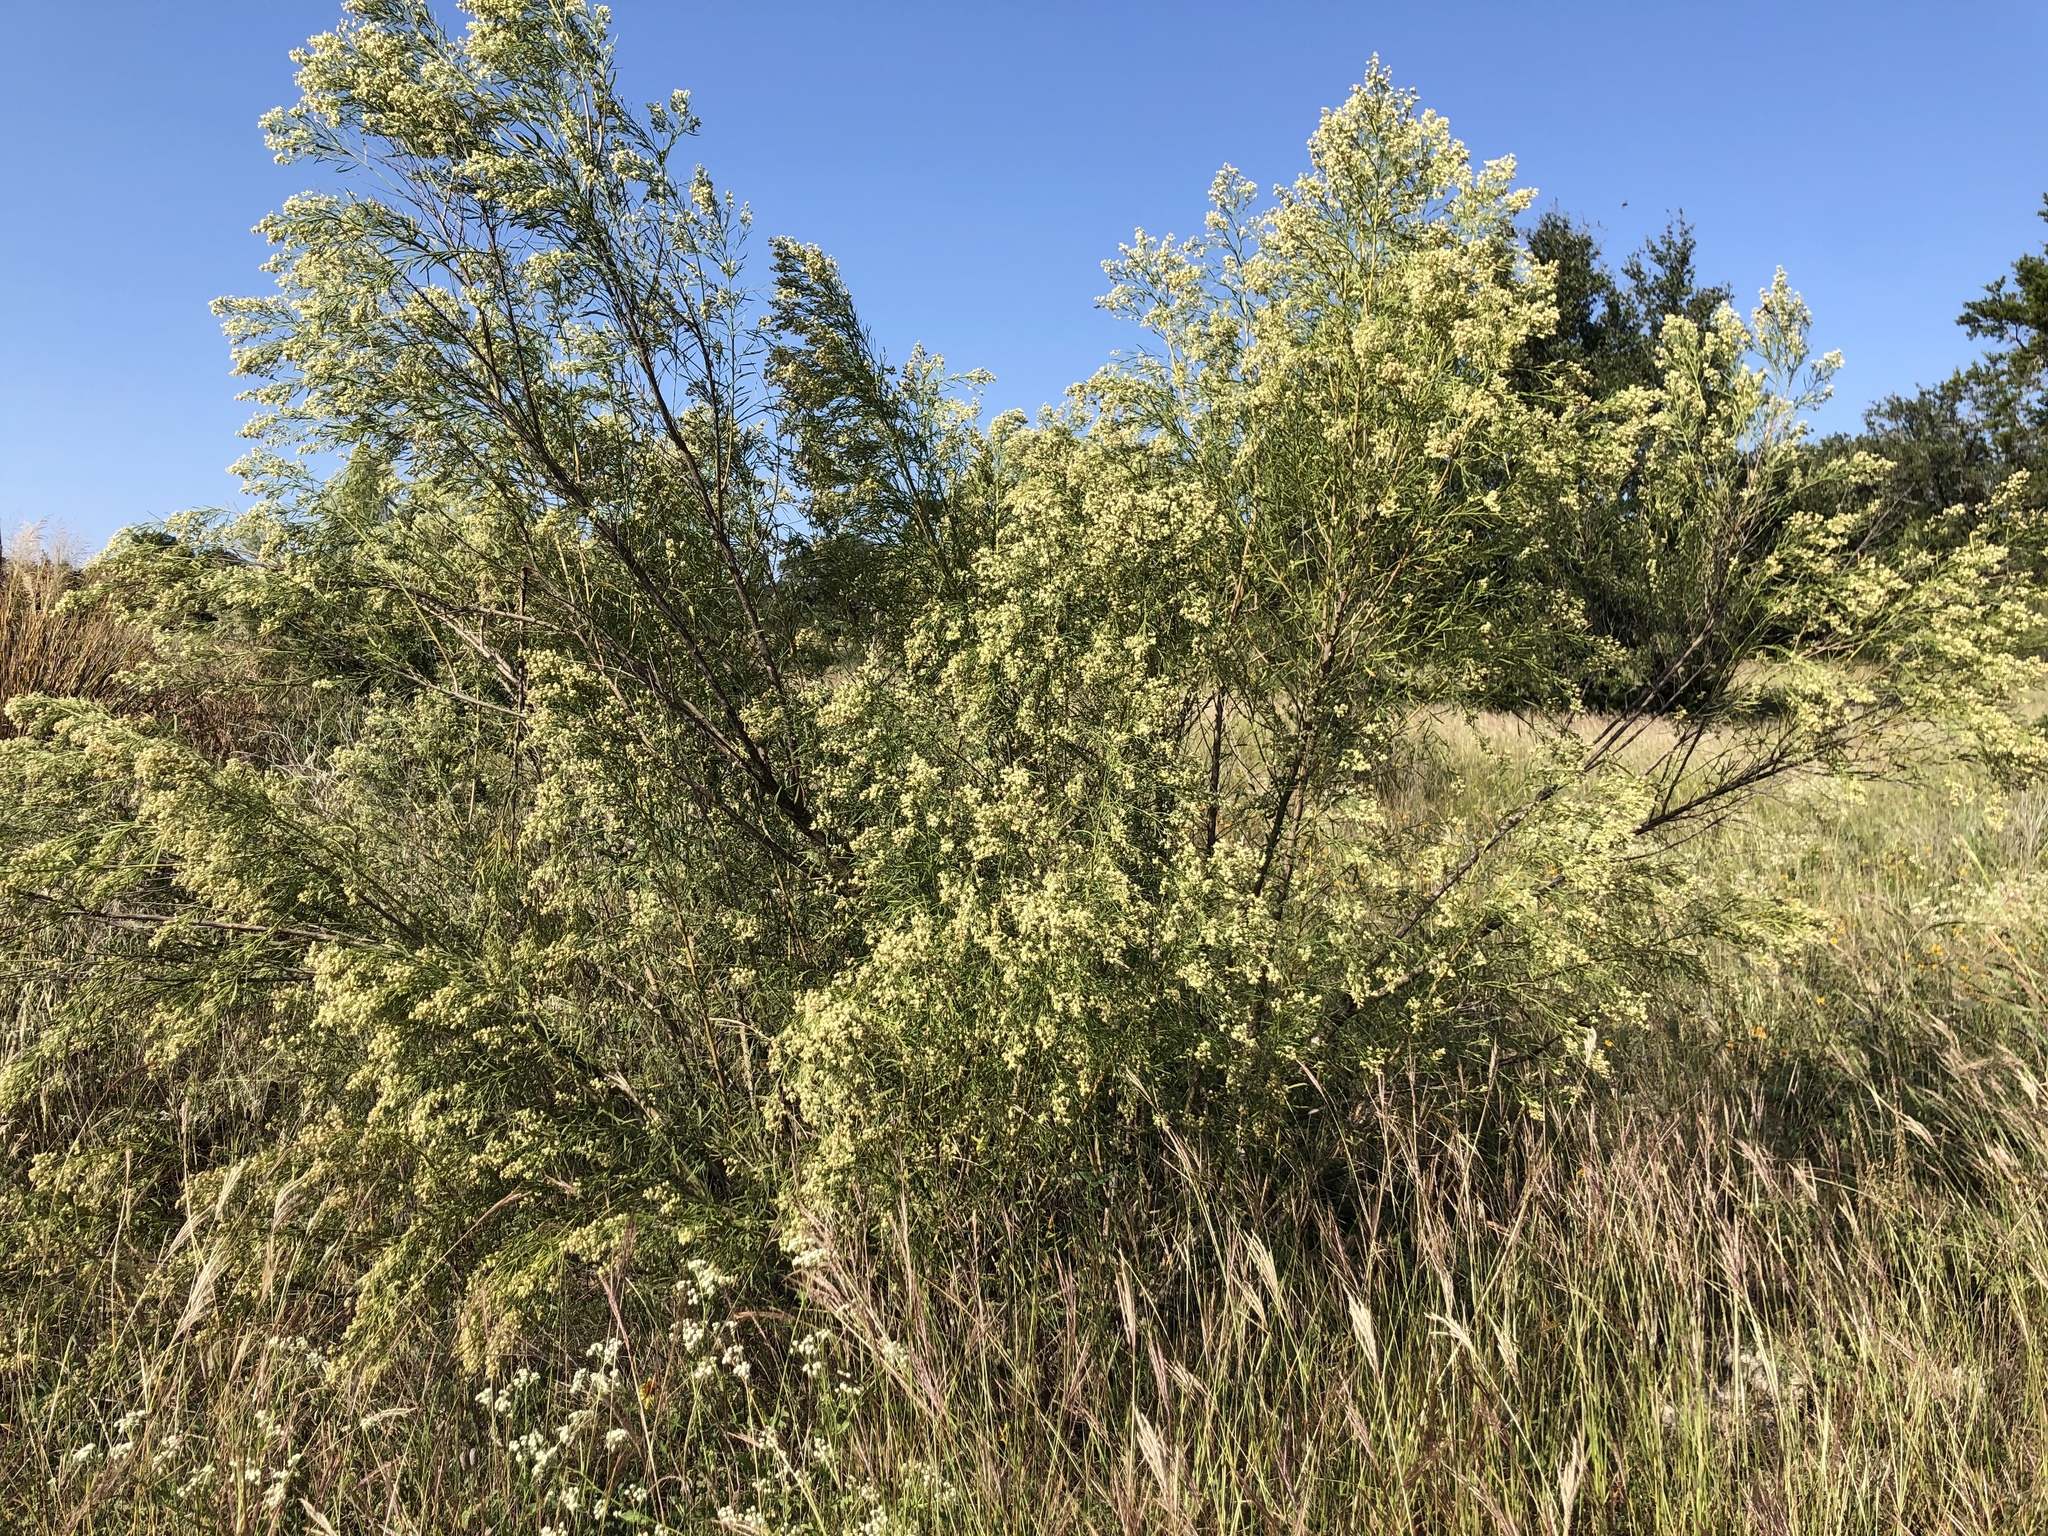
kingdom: Plantae
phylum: Tracheophyta
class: Magnoliopsida
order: Asterales
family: Asteraceae
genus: Baccharis
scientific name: Baccharis neglecta
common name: Roosevelt-weed
